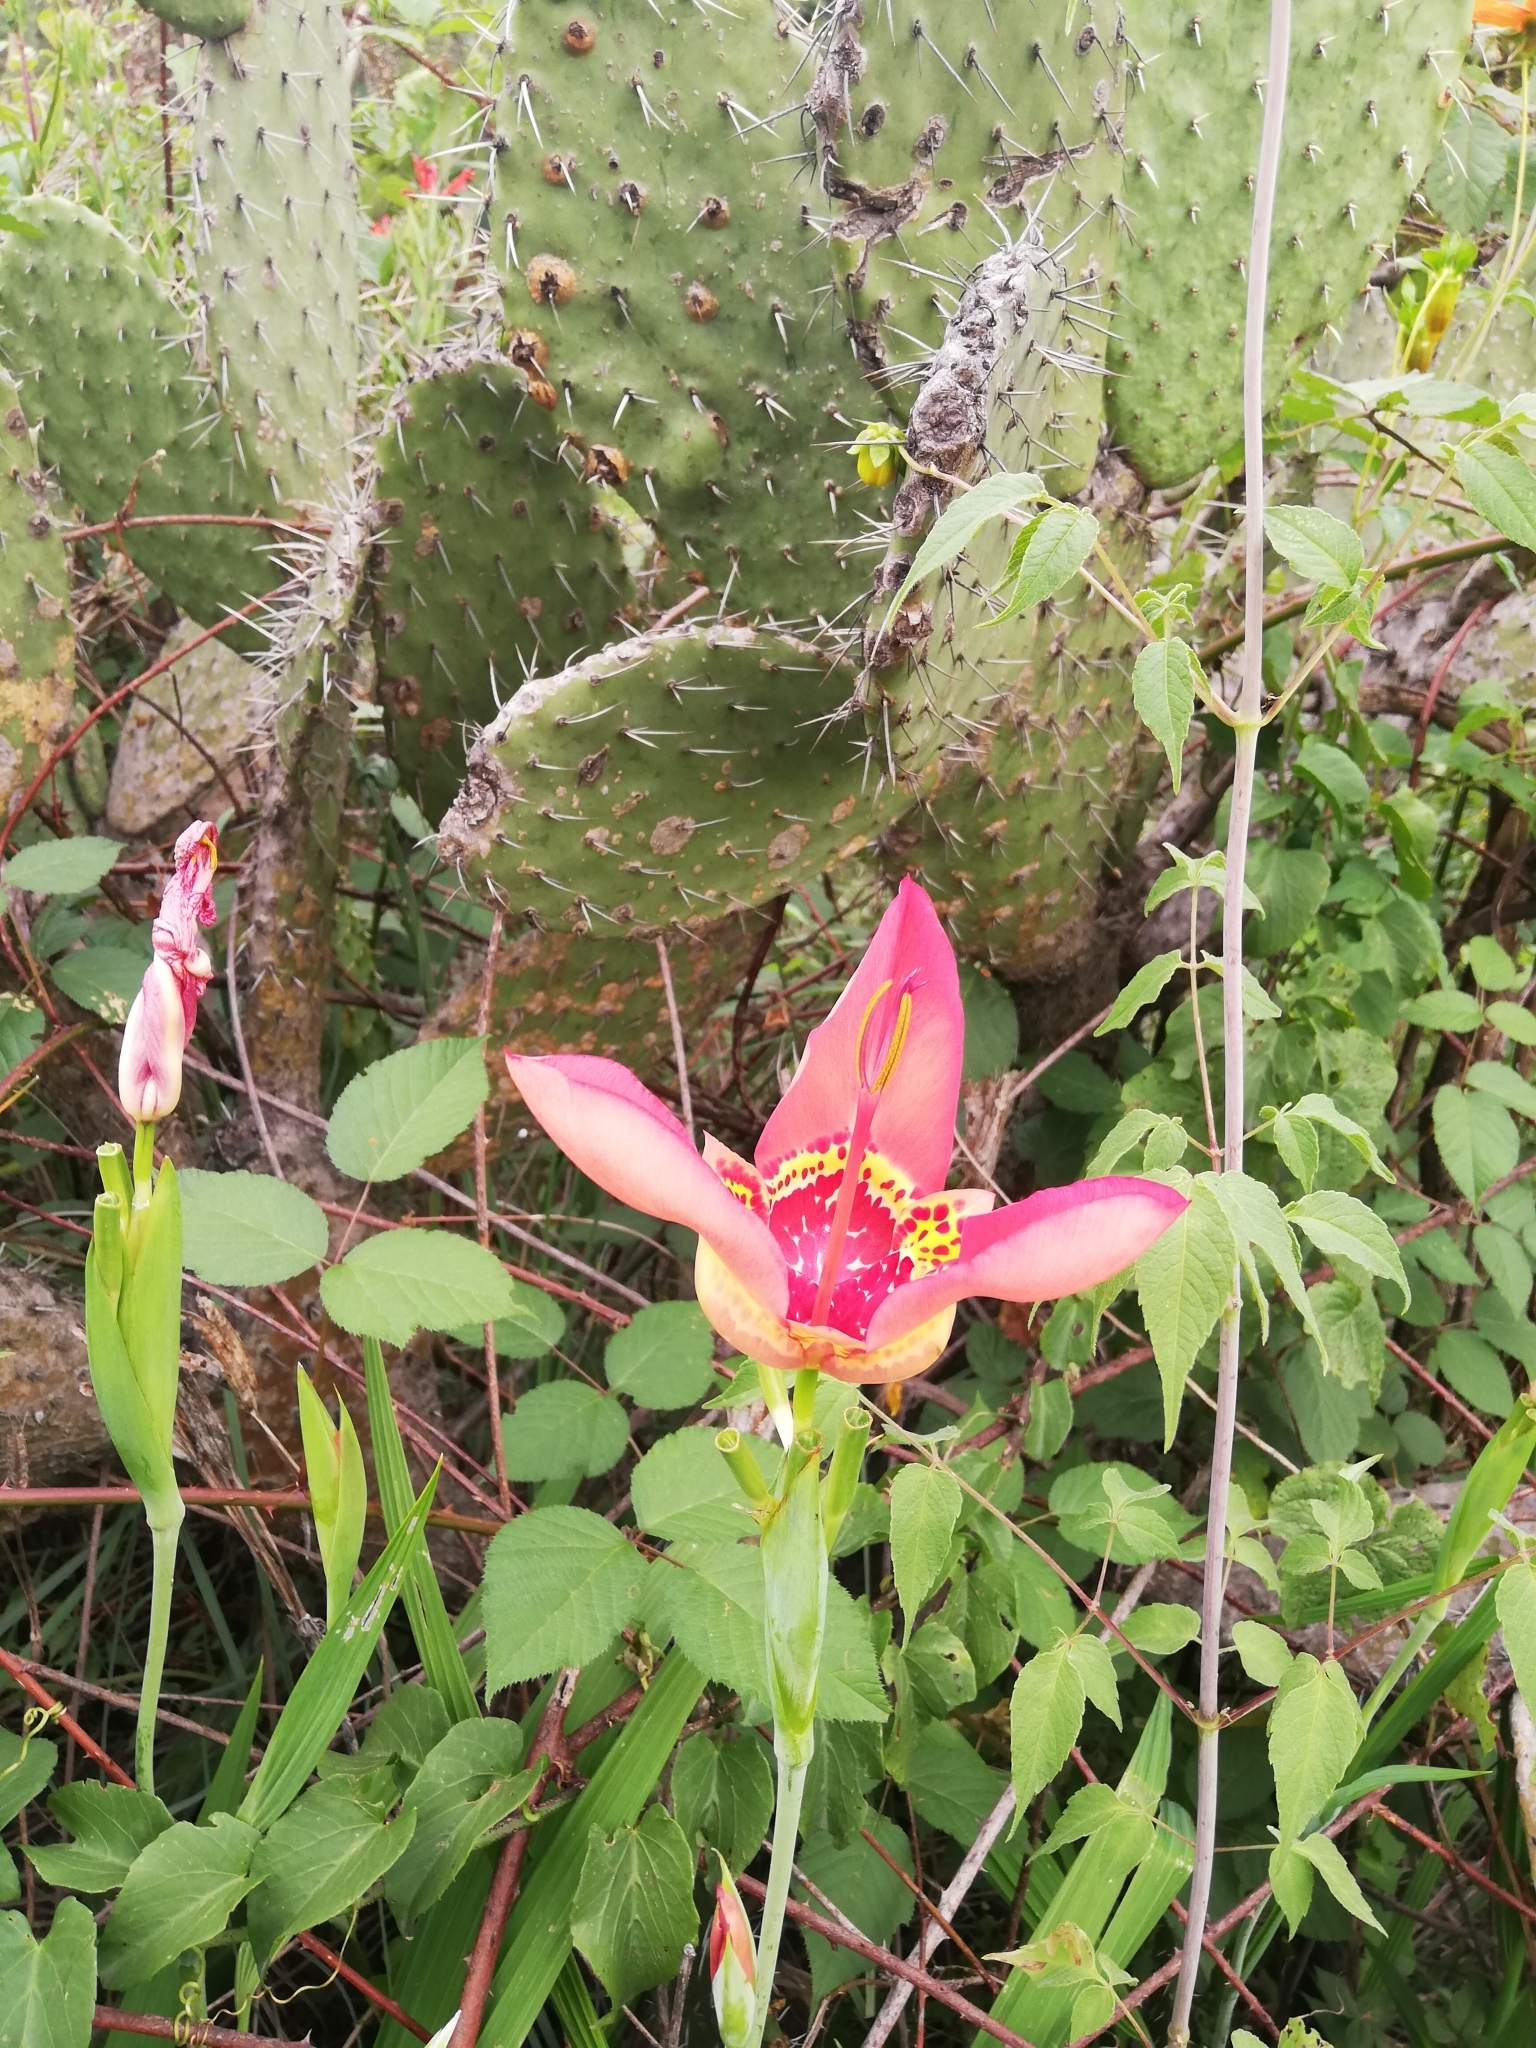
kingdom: Plantae
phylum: Tracheophyta
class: Liliopsida
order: Asparagales
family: Iridaceae
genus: Tigridia
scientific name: Tigridia pavonia
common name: Peacock-flower
